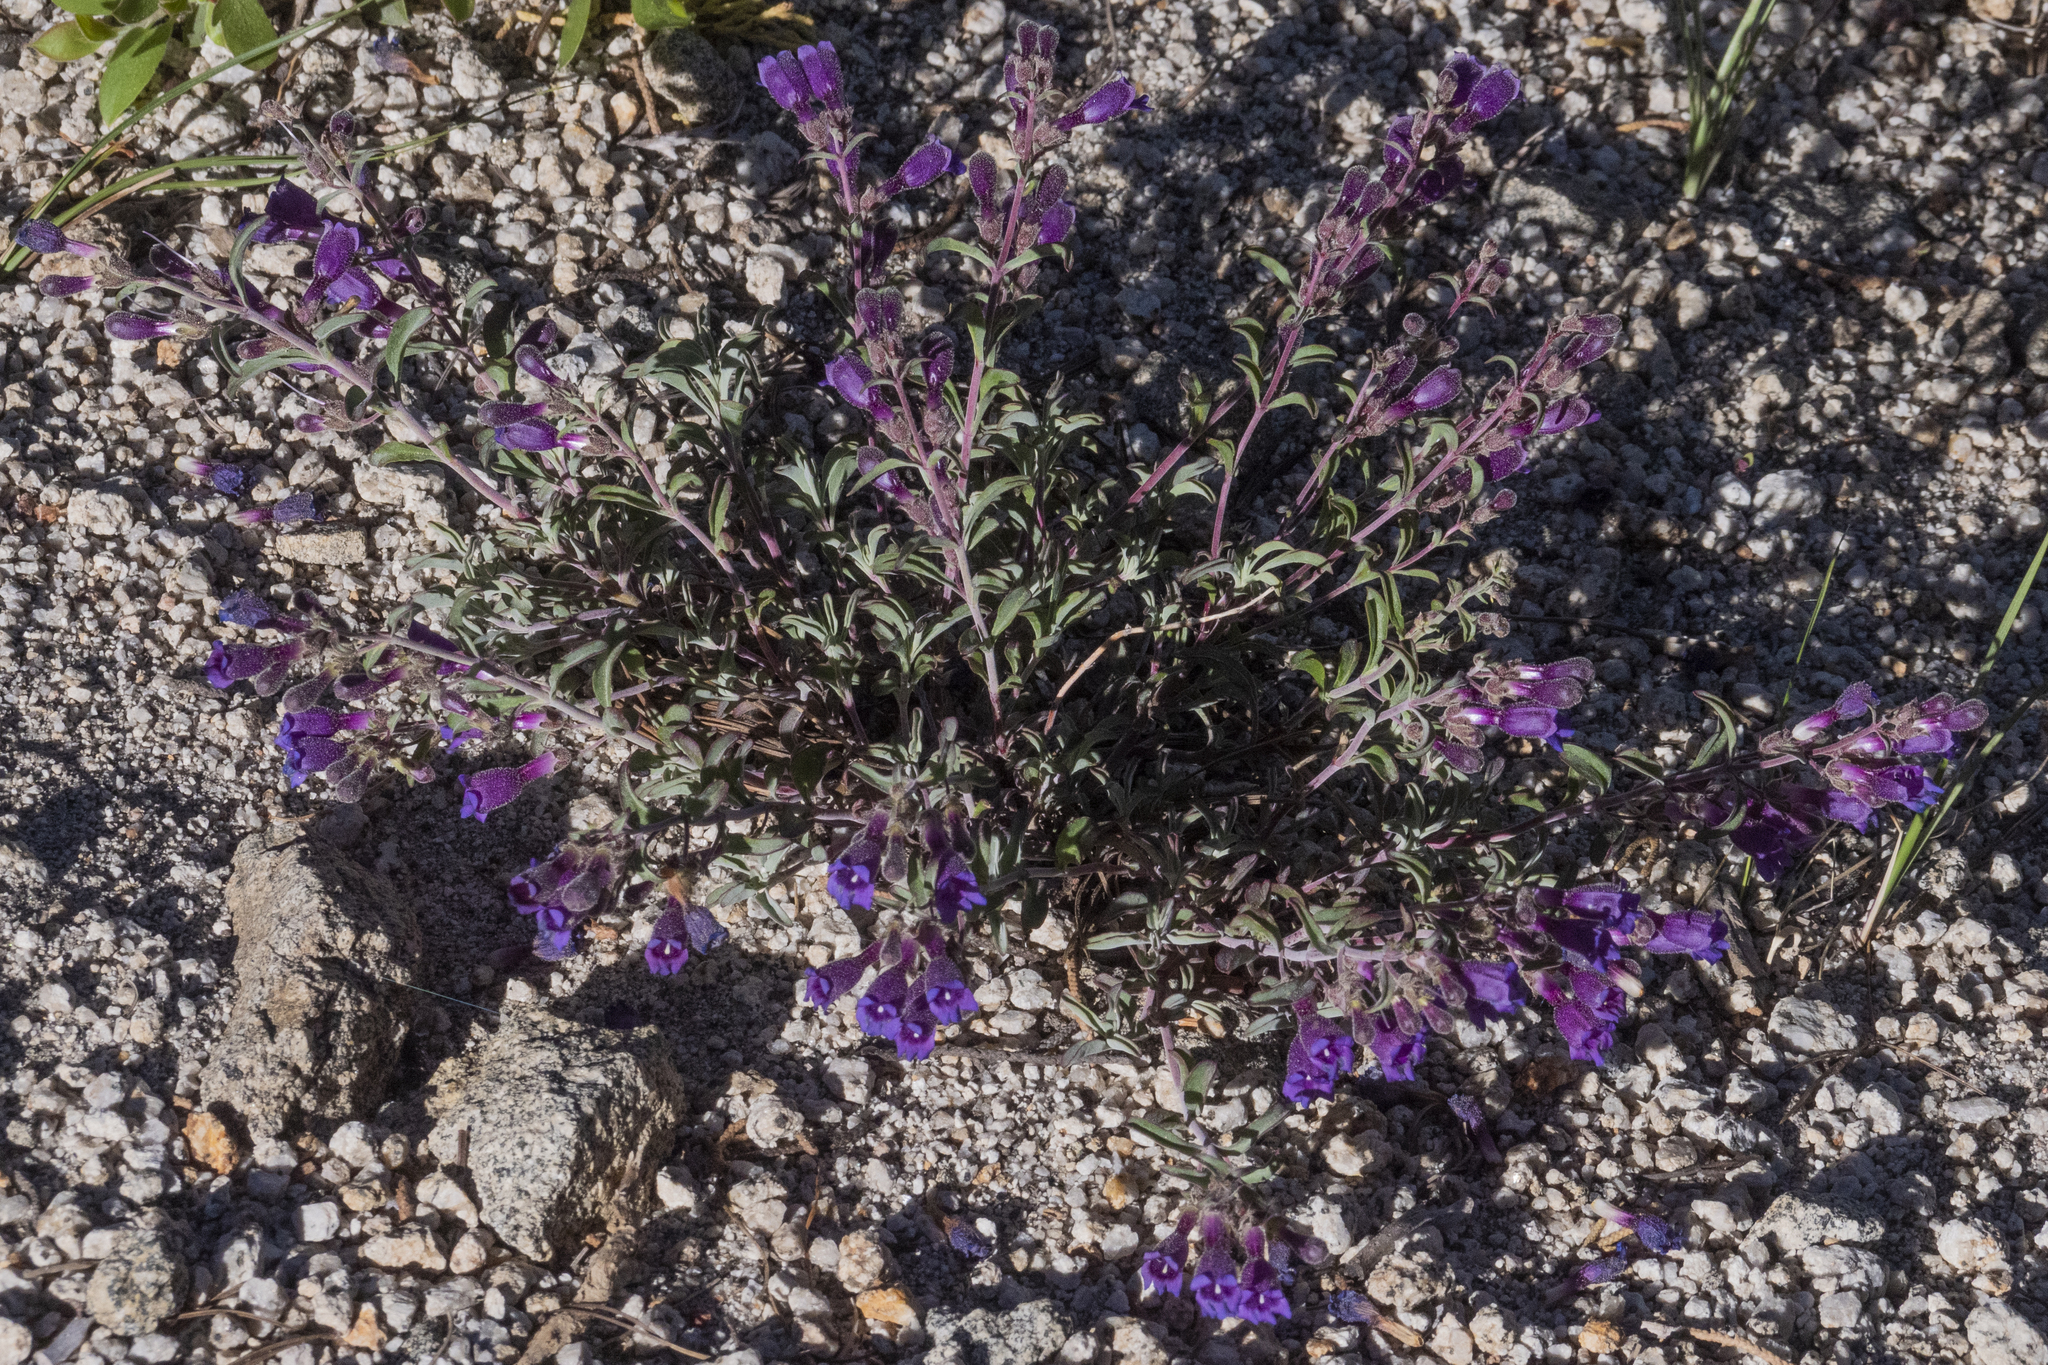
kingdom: Plantae
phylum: Tracheophyta
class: Magnoliopsida
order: Lamiales
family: Plantaginaceae
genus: Penstemon
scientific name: Penstemon roezlii
